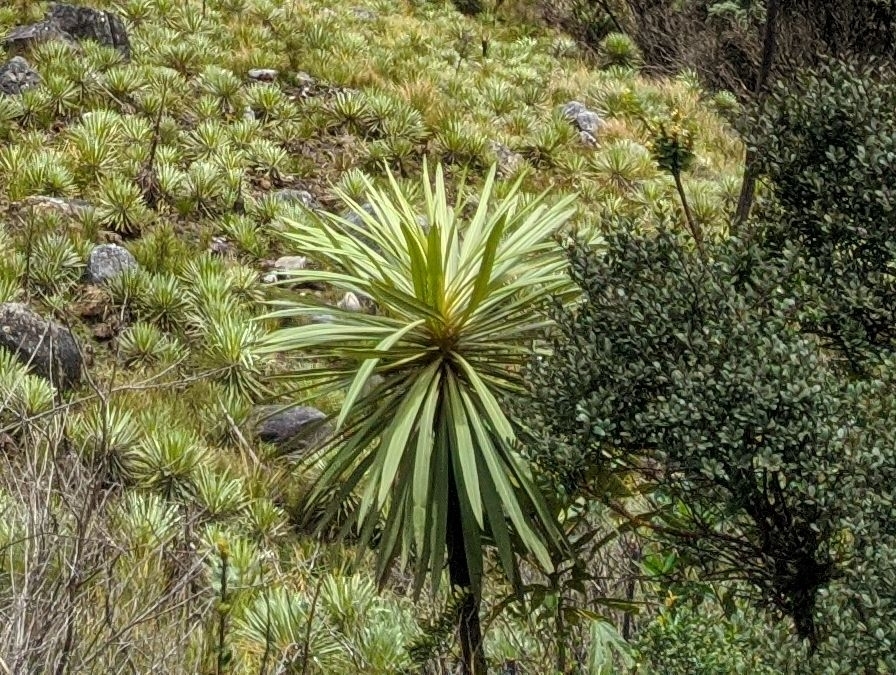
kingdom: Plantae
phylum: Tracheophyta
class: Magnoliopsida
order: Asterales
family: Asteraceae
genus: Espeletia
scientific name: Espeletia paltonioides
